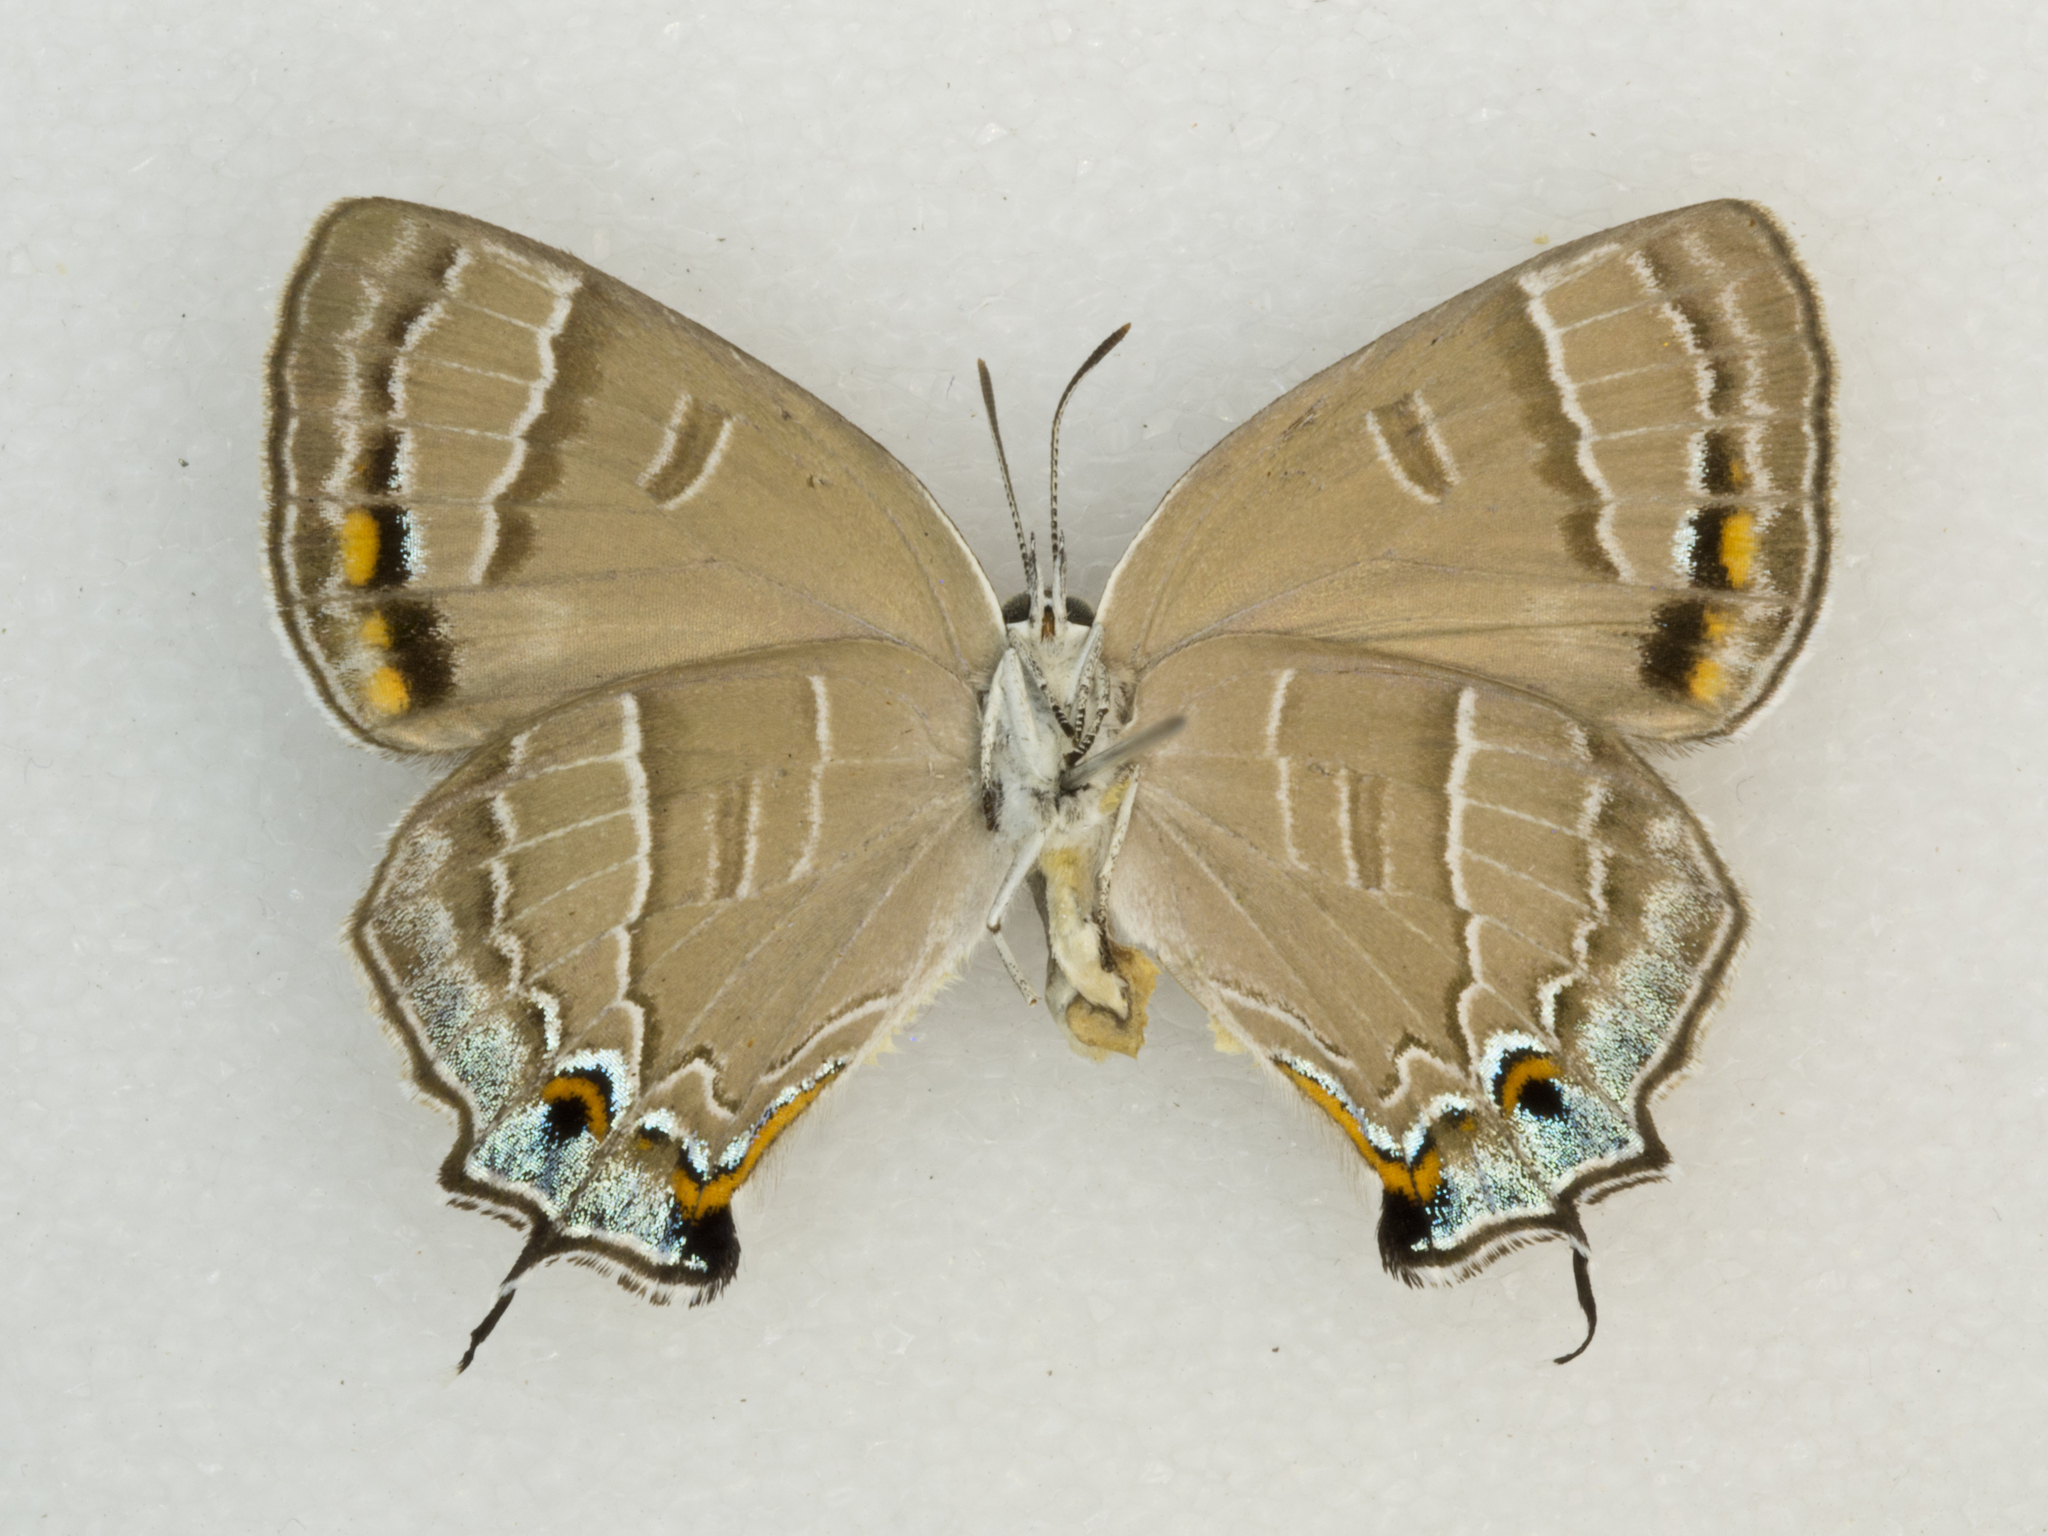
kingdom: Animalia
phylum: Arthropoda
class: Insecta
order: Lepidoptera
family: Lycaenidae
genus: Hypaurotis
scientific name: Hypaurotis crysalus
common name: Colorado hairstreak
